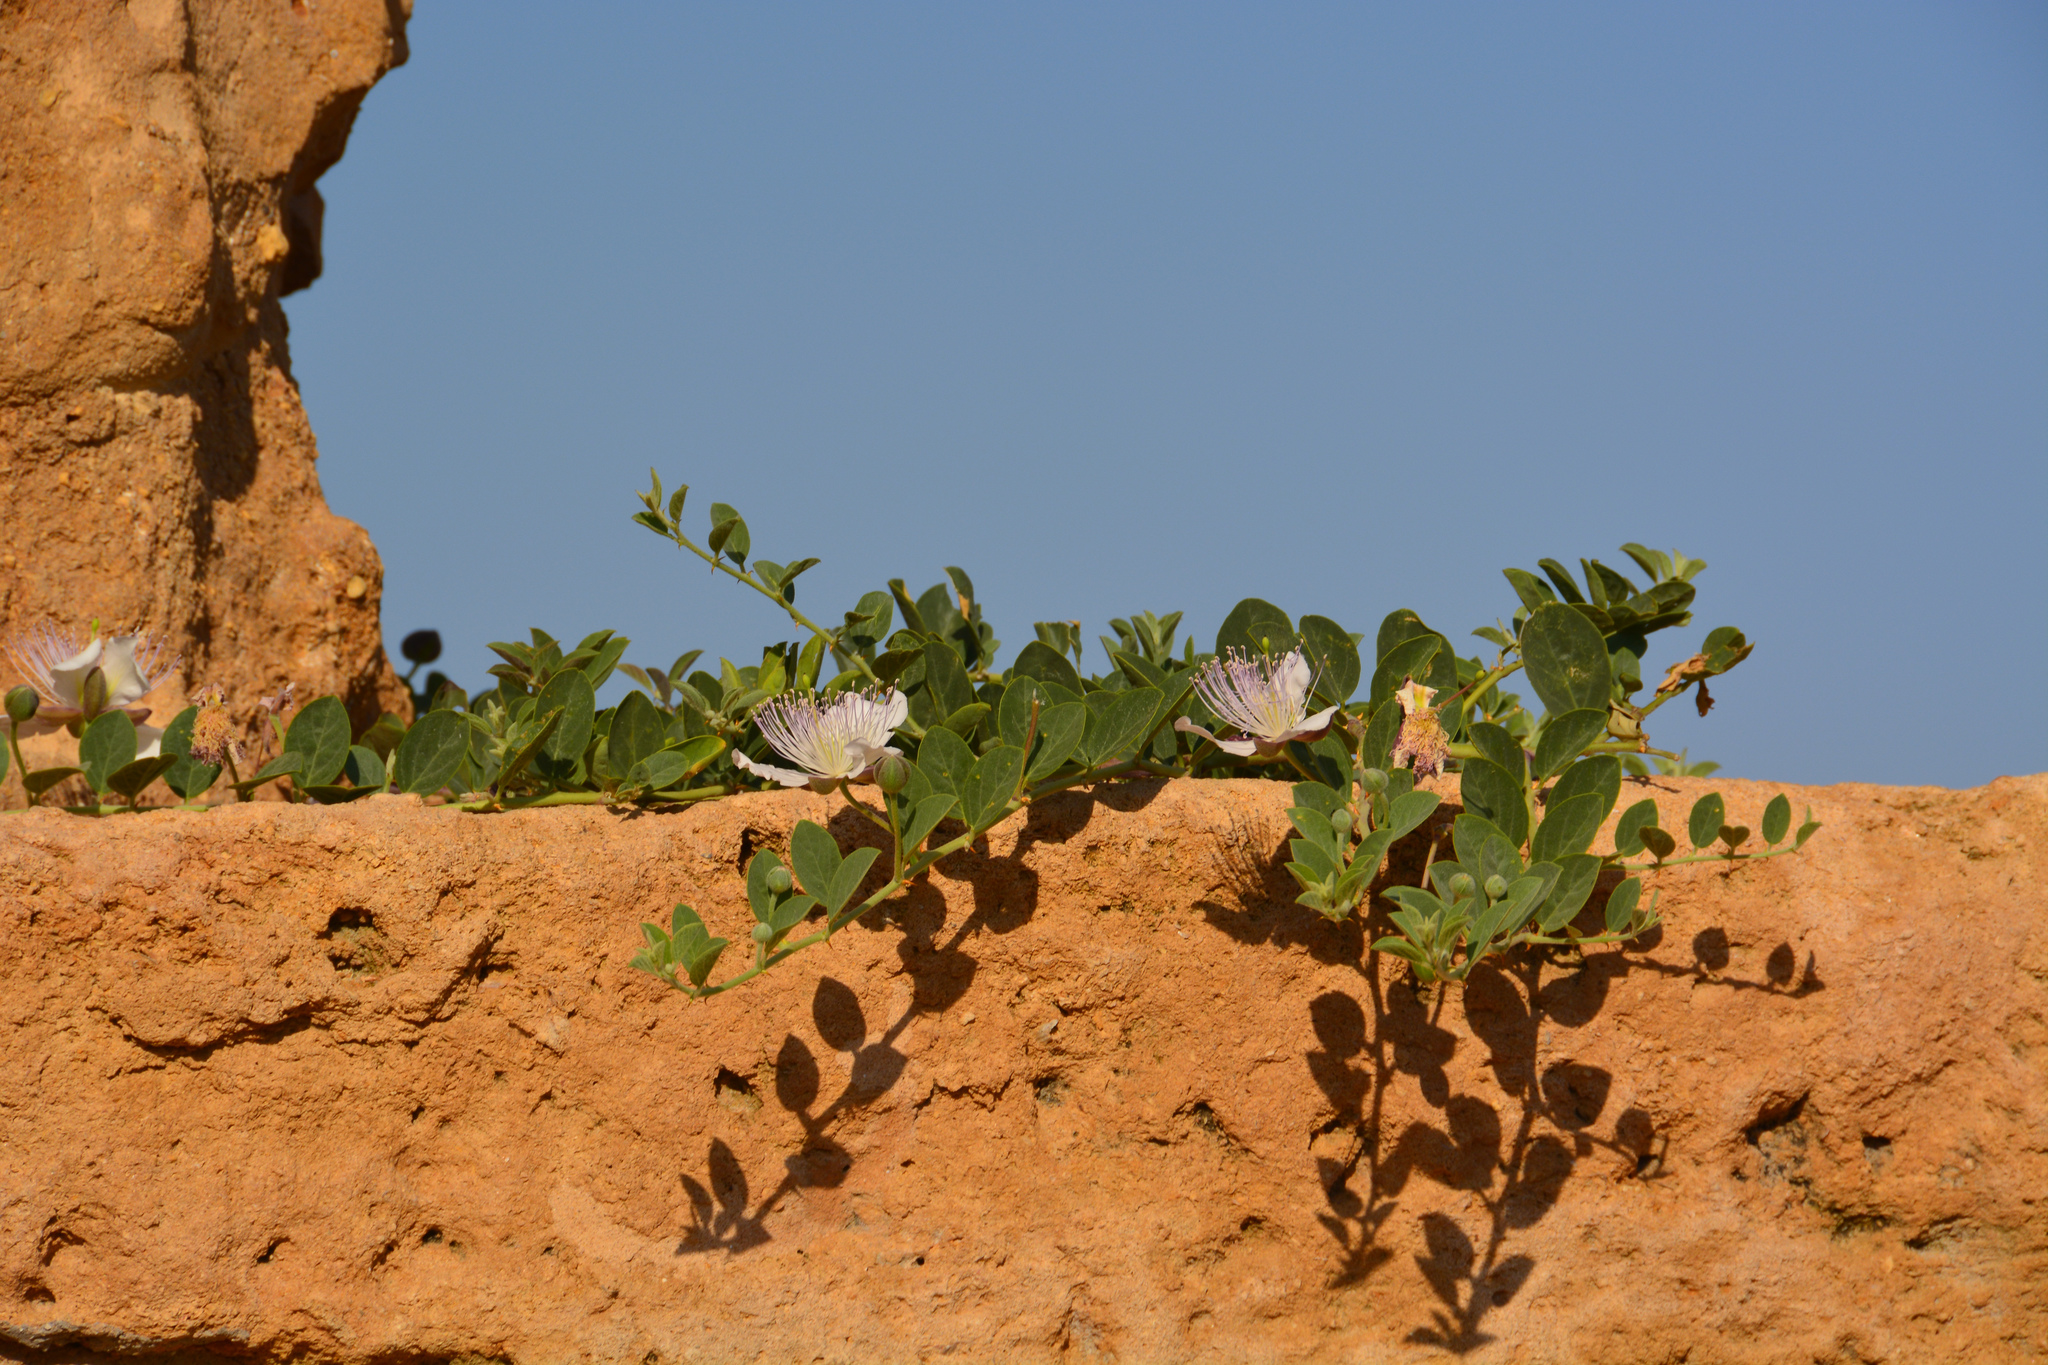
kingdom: Plantae
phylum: Tracheophyta
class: Magnoliopsida
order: Brassicales
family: Capparaceae
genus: Capparis
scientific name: Capparis spinosa
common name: Caper
